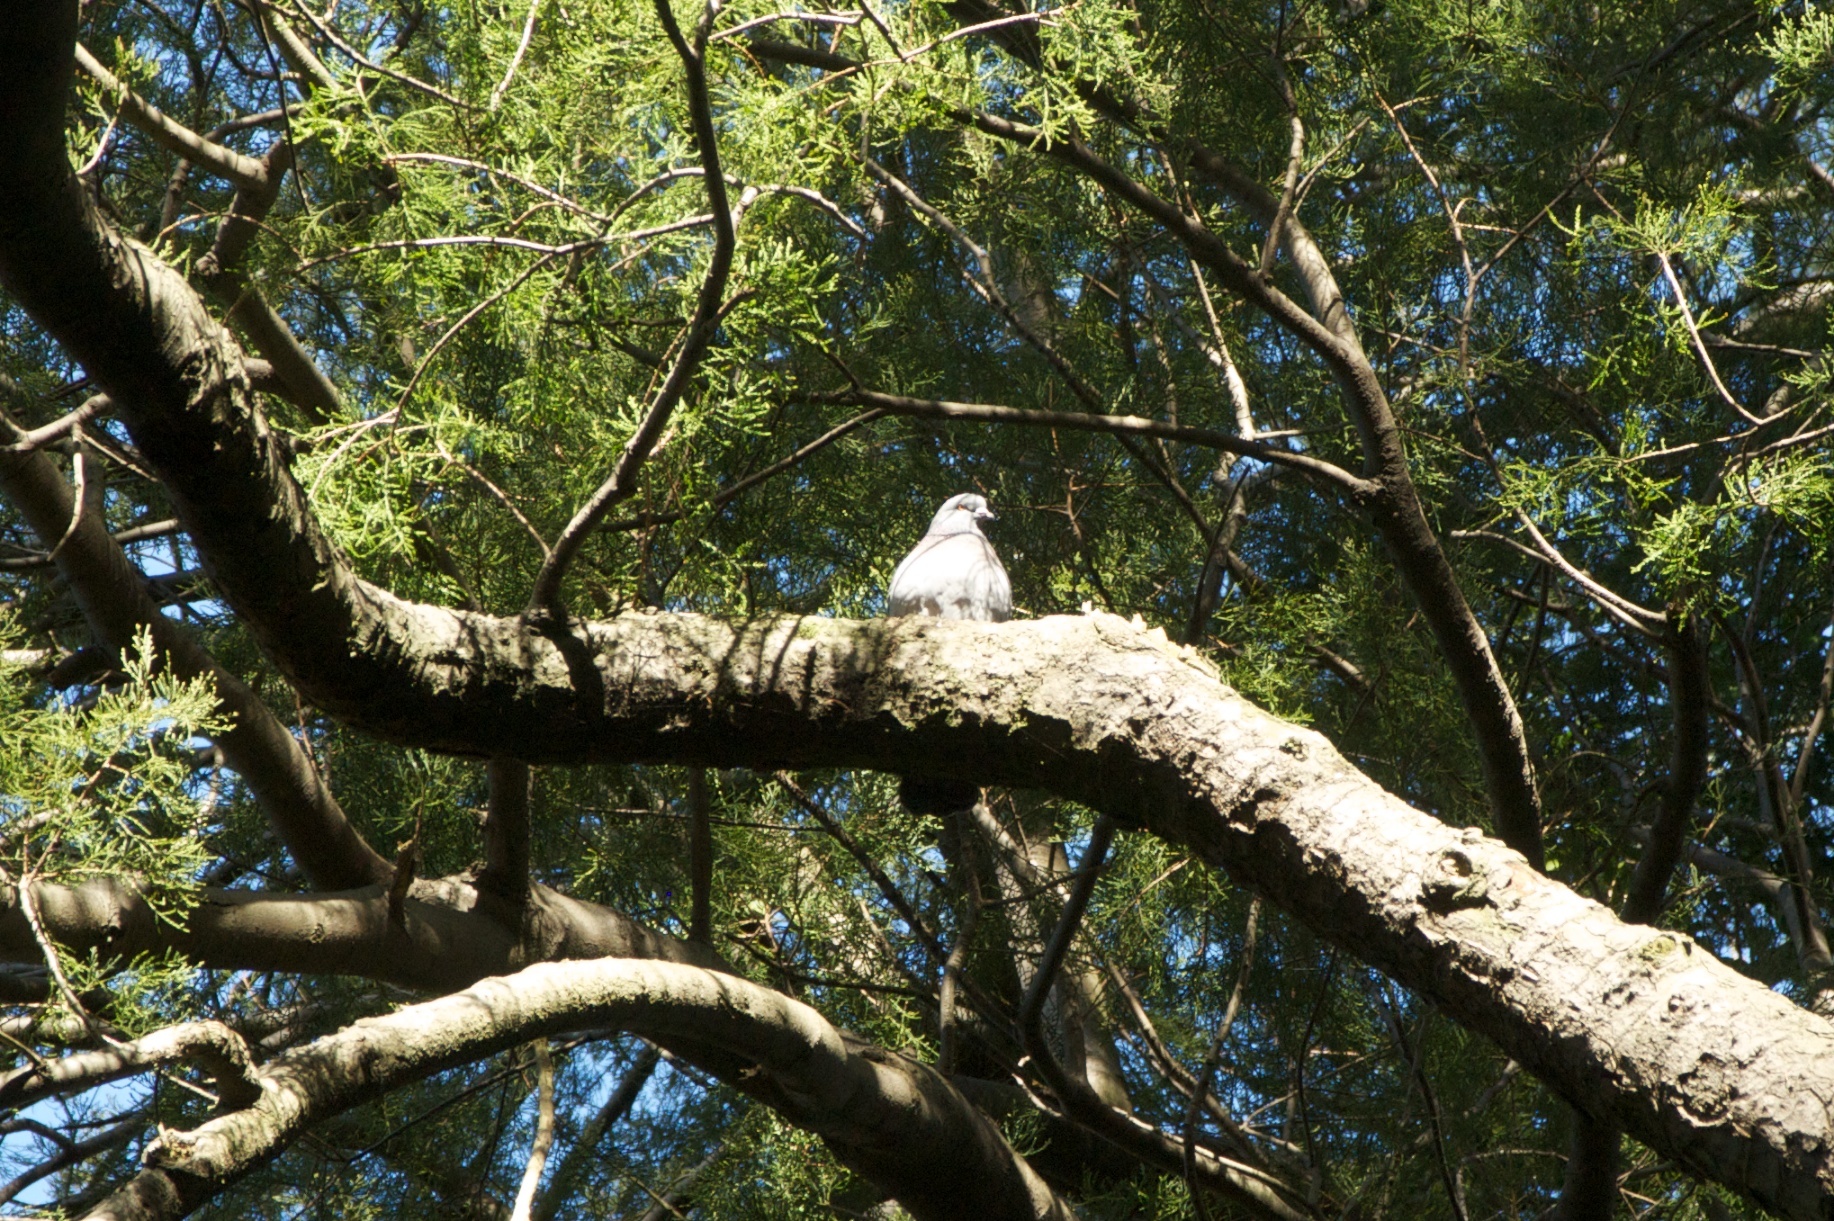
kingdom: Animalia
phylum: Chordata
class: Aves
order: Columbiformes
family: Columbidae
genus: Columba
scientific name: Columba livia
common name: Rock pigeon
